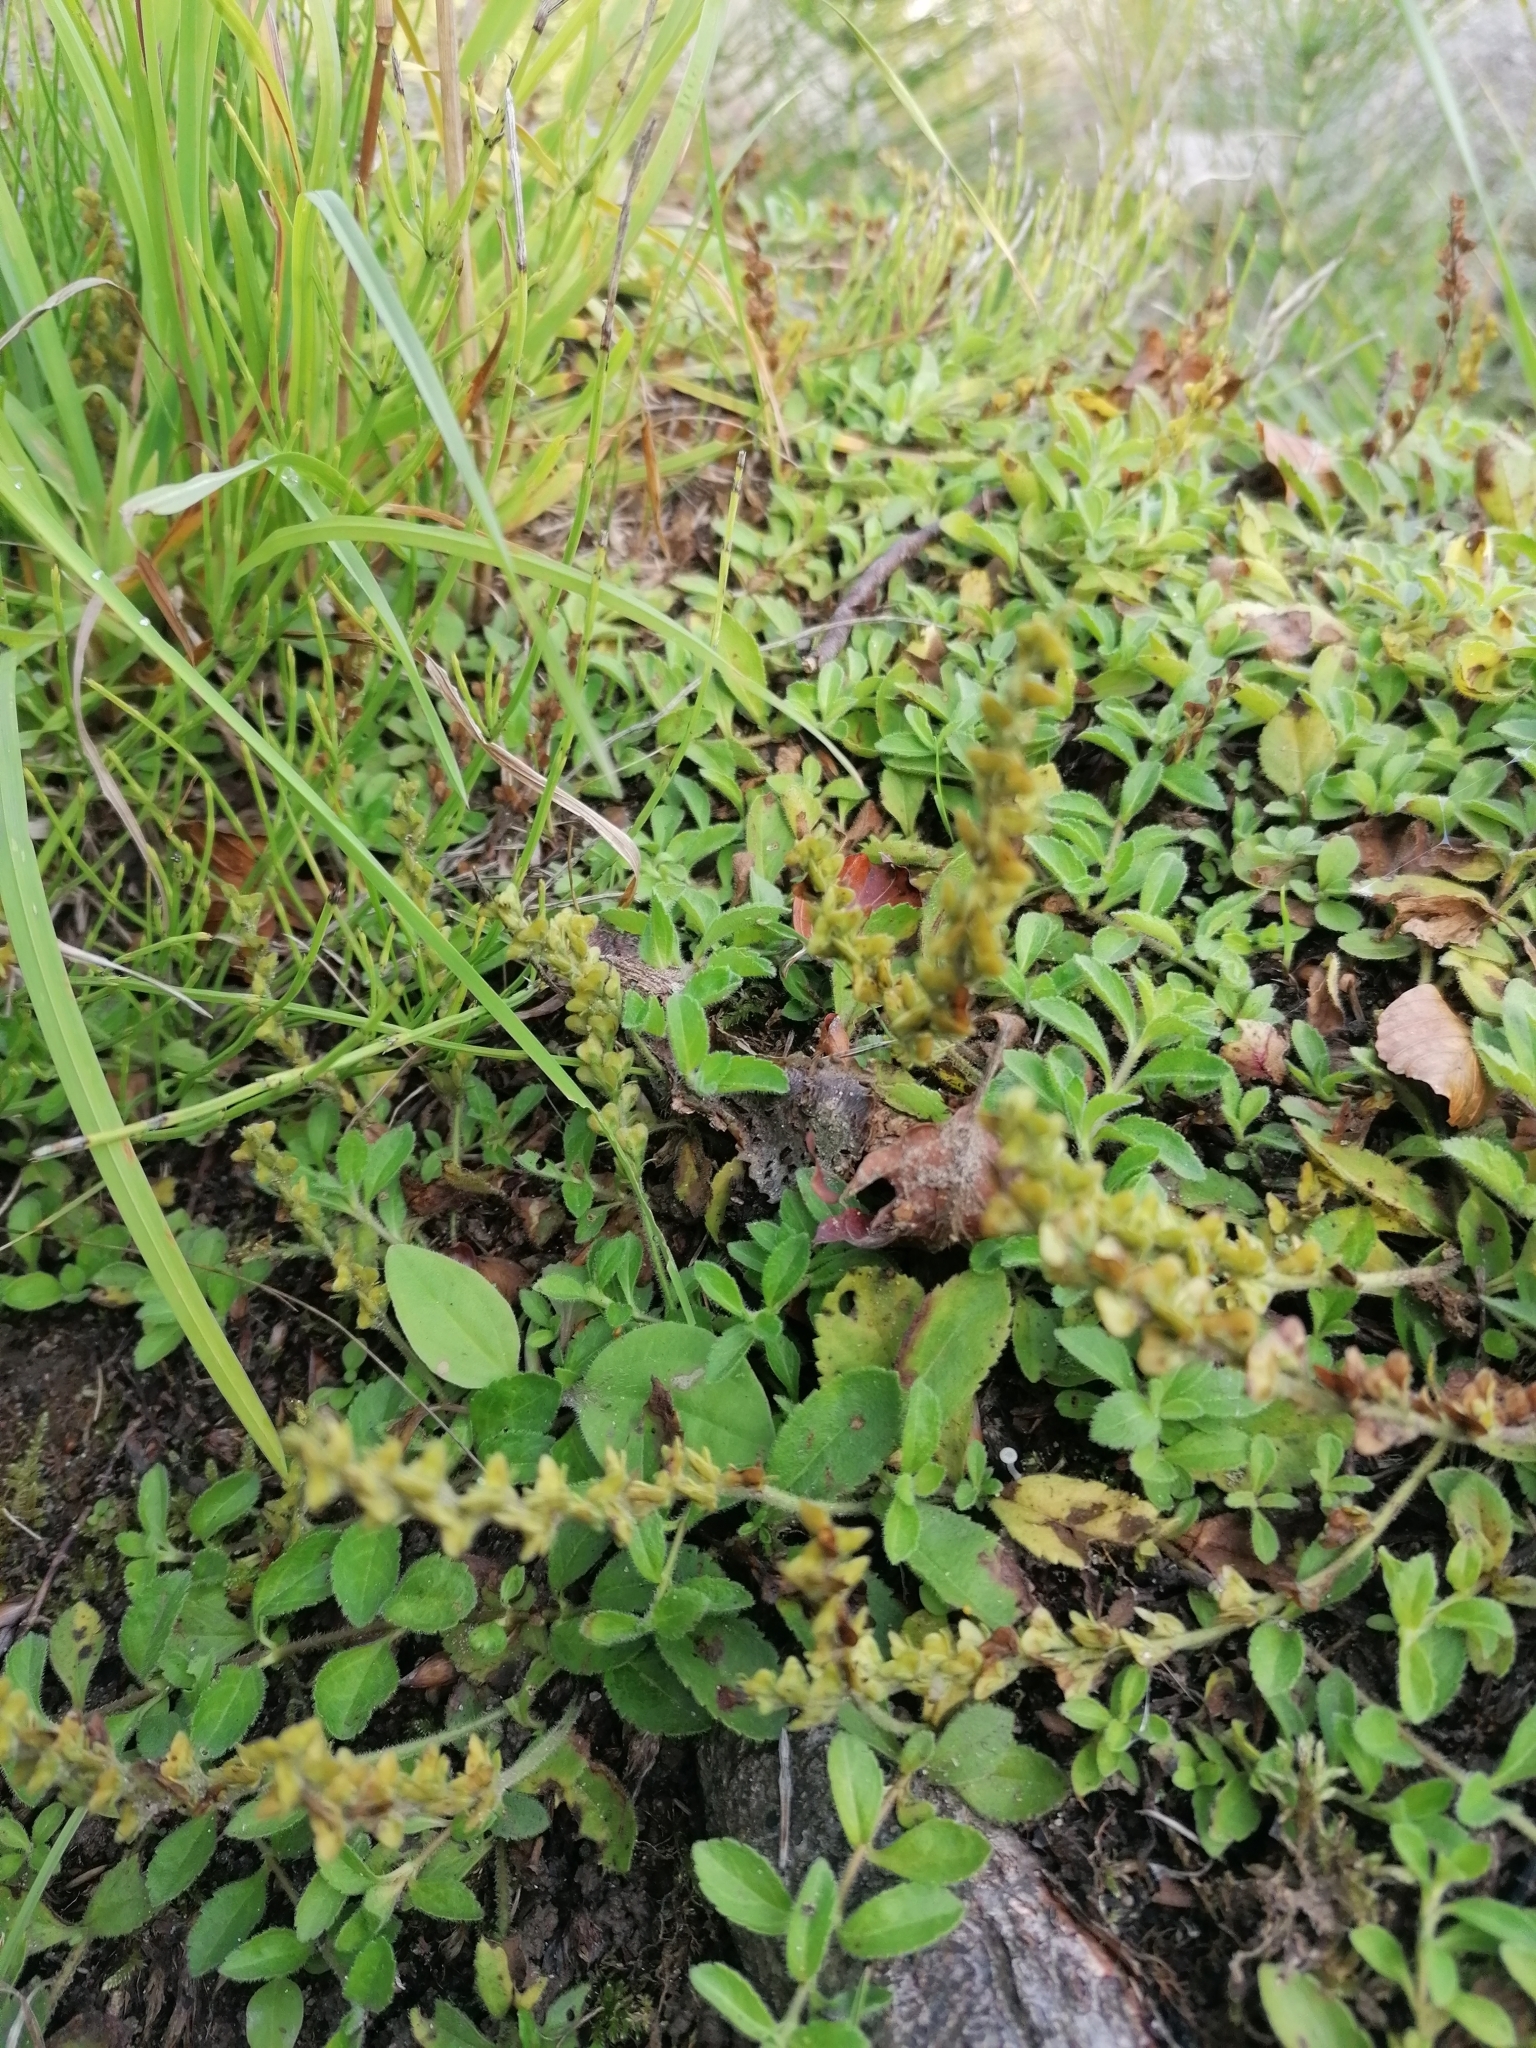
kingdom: Plantae
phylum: Tracheophyta
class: Magnoliopsida
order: Lamiales
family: Plantaginaceae
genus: Veronica
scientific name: Veronica officinalis
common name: Common speedwell
